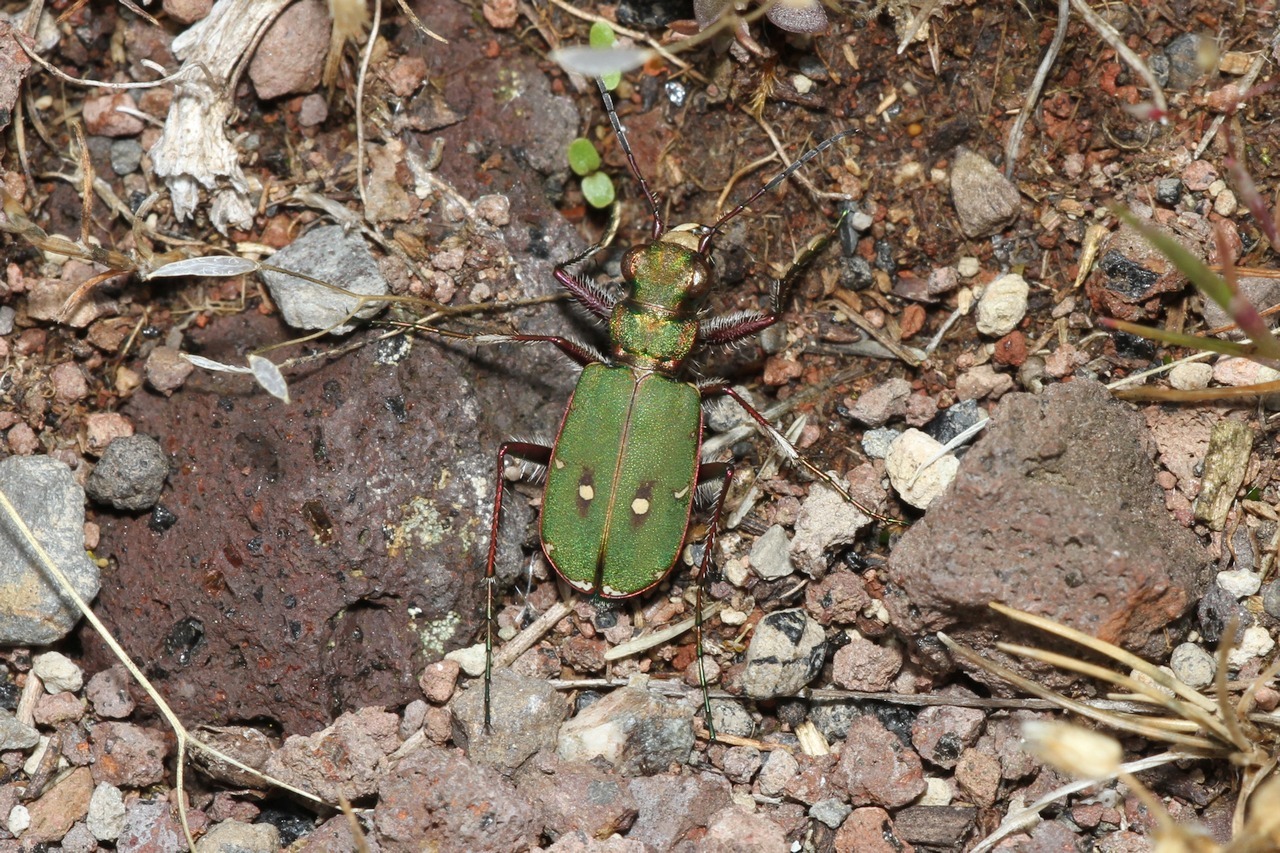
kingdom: Animalia
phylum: Arthropoda
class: Insecta
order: Coleoptera
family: Carabidae
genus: Cicindela
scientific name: Cicindela campestris
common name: Common tiger beetle
